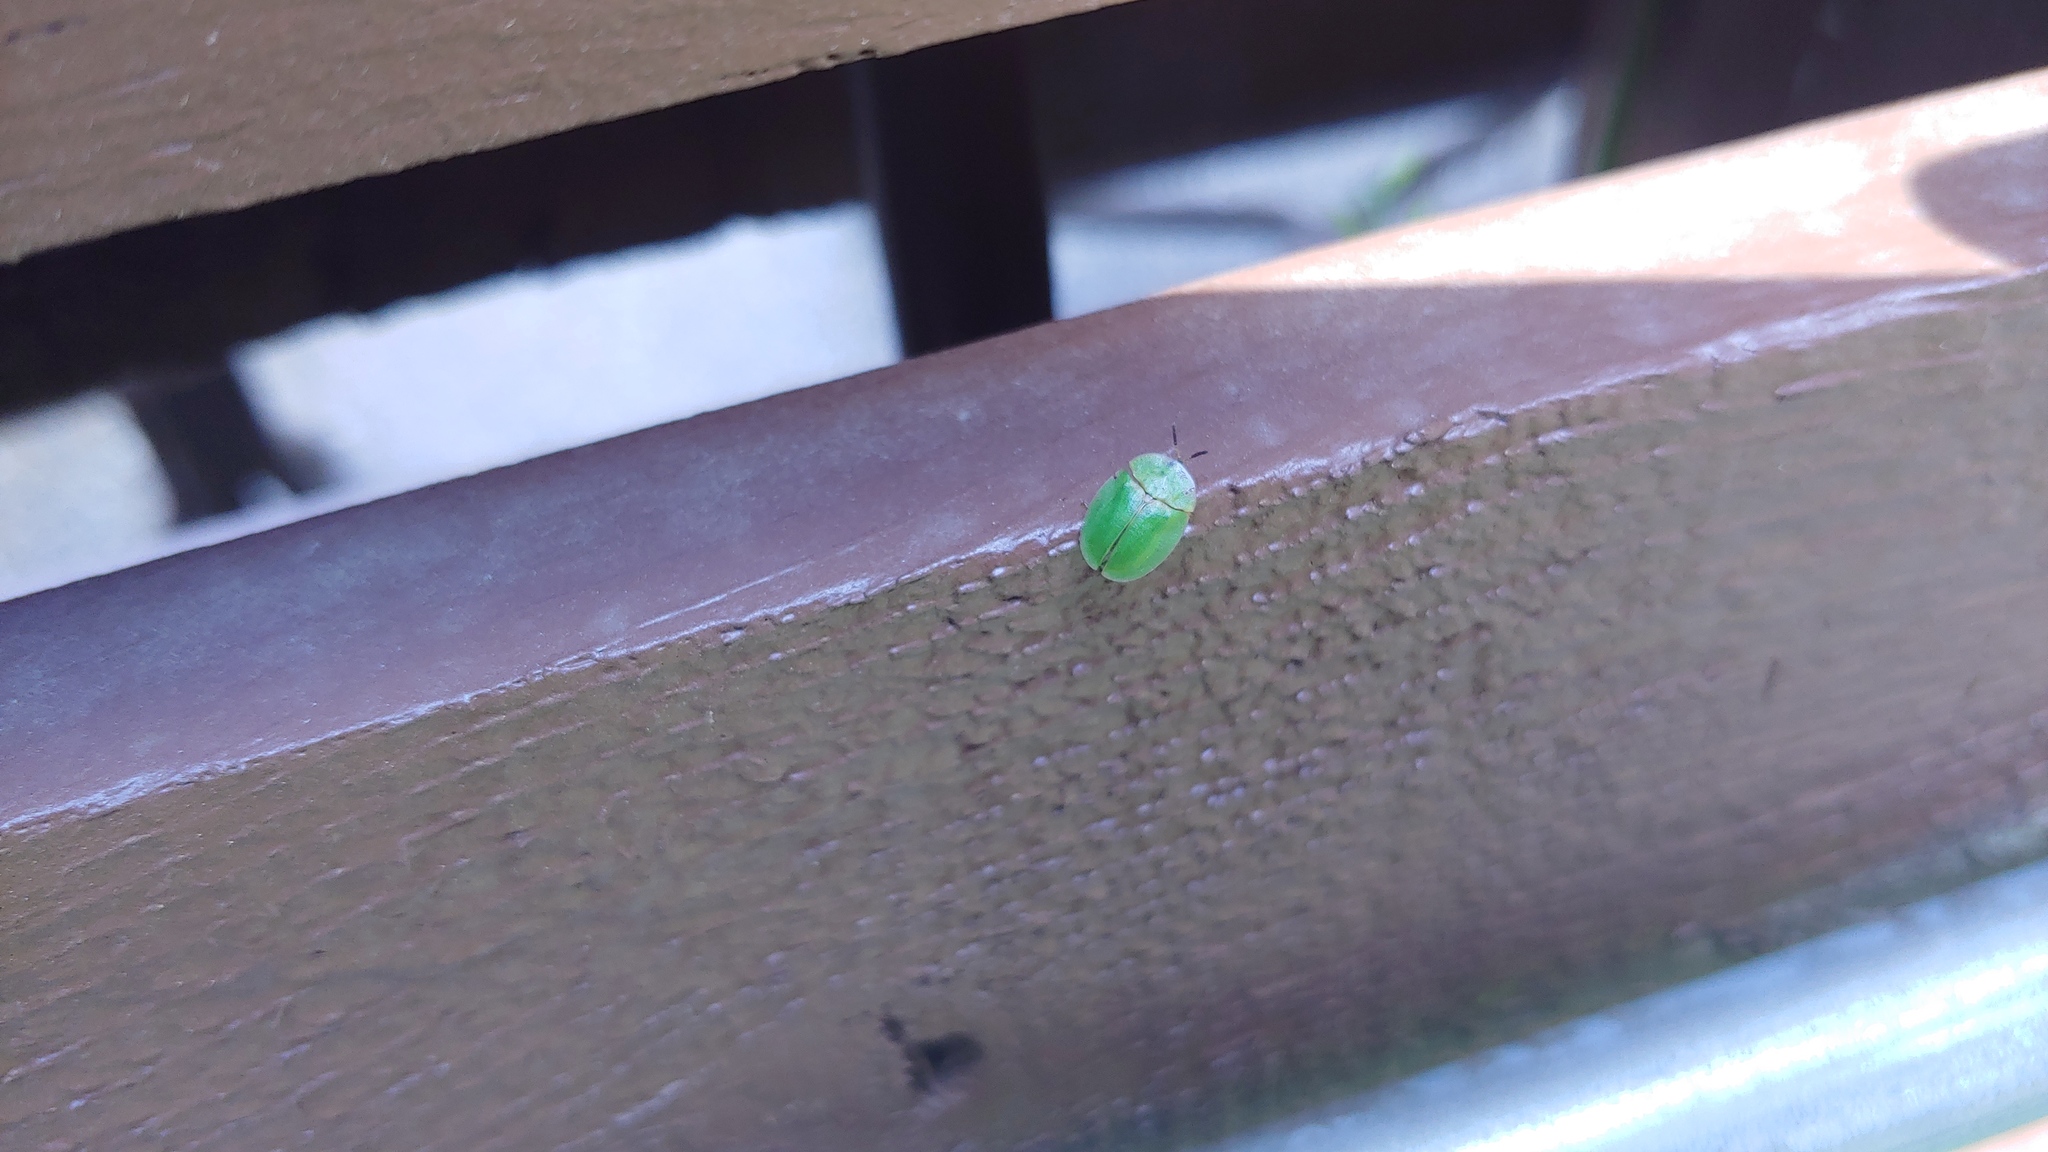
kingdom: Animalia
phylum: Arthropoda
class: Insecta
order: Coleoptera
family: Chrysomelidae
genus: Cassida
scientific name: Cassida rubiginosa
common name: Thistle tortoise beetle
